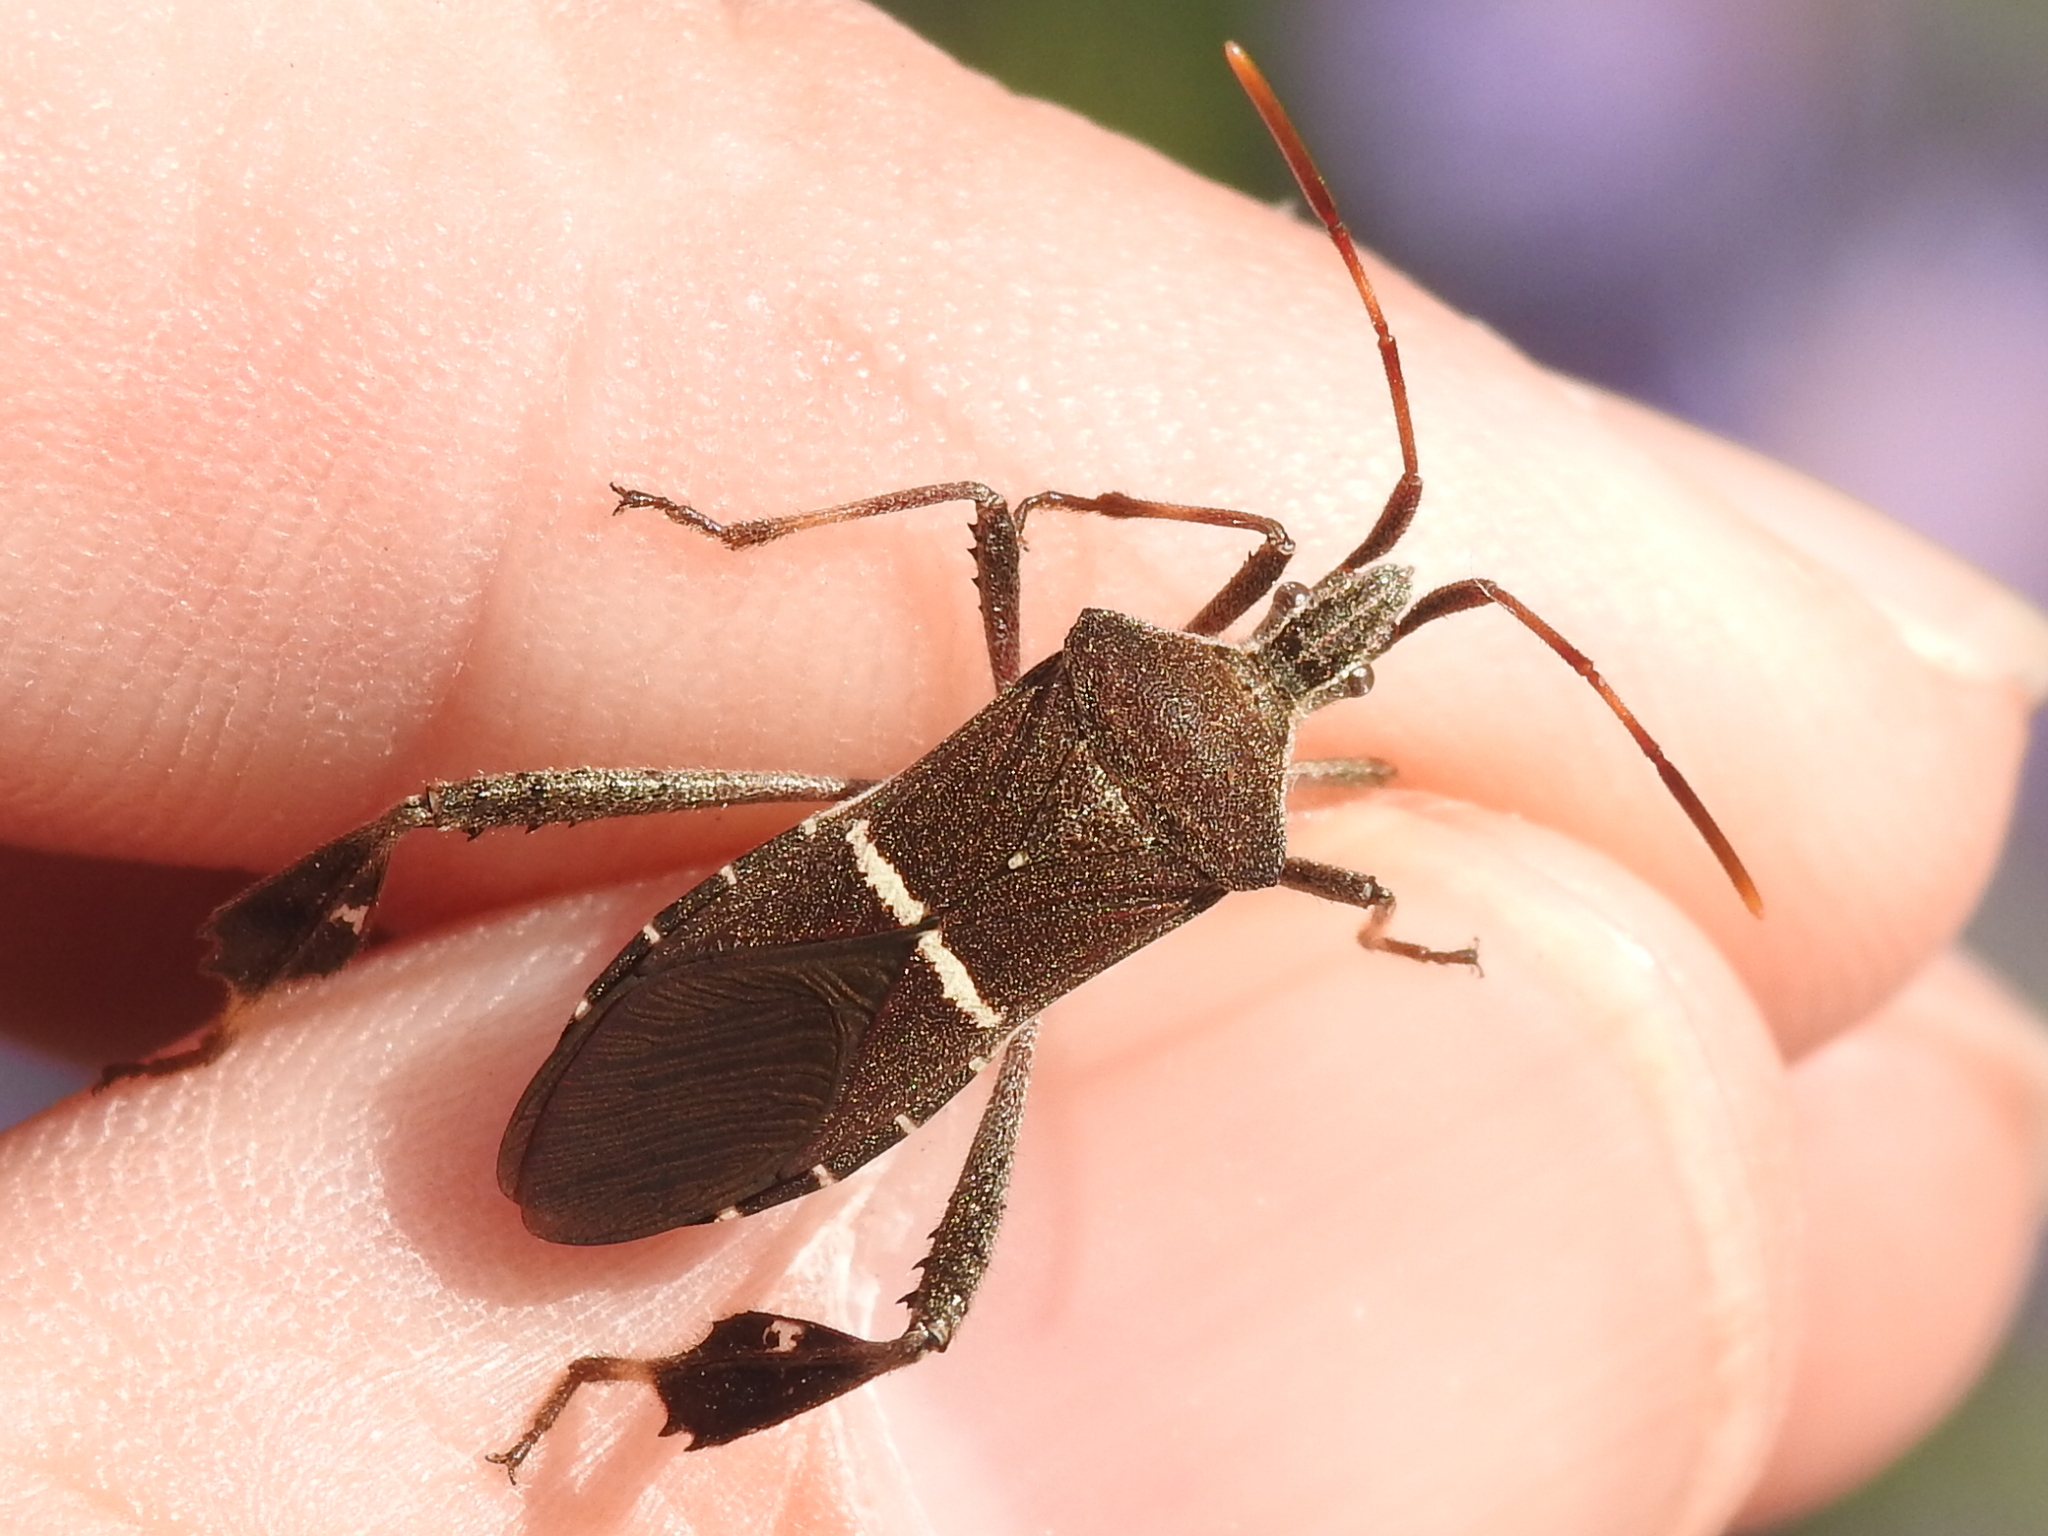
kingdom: Animalia
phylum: Arthropoda
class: Insecta
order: Hemiptera
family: Coreidae
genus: Leptoglossus
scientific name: Leptoglossus phyllopus
